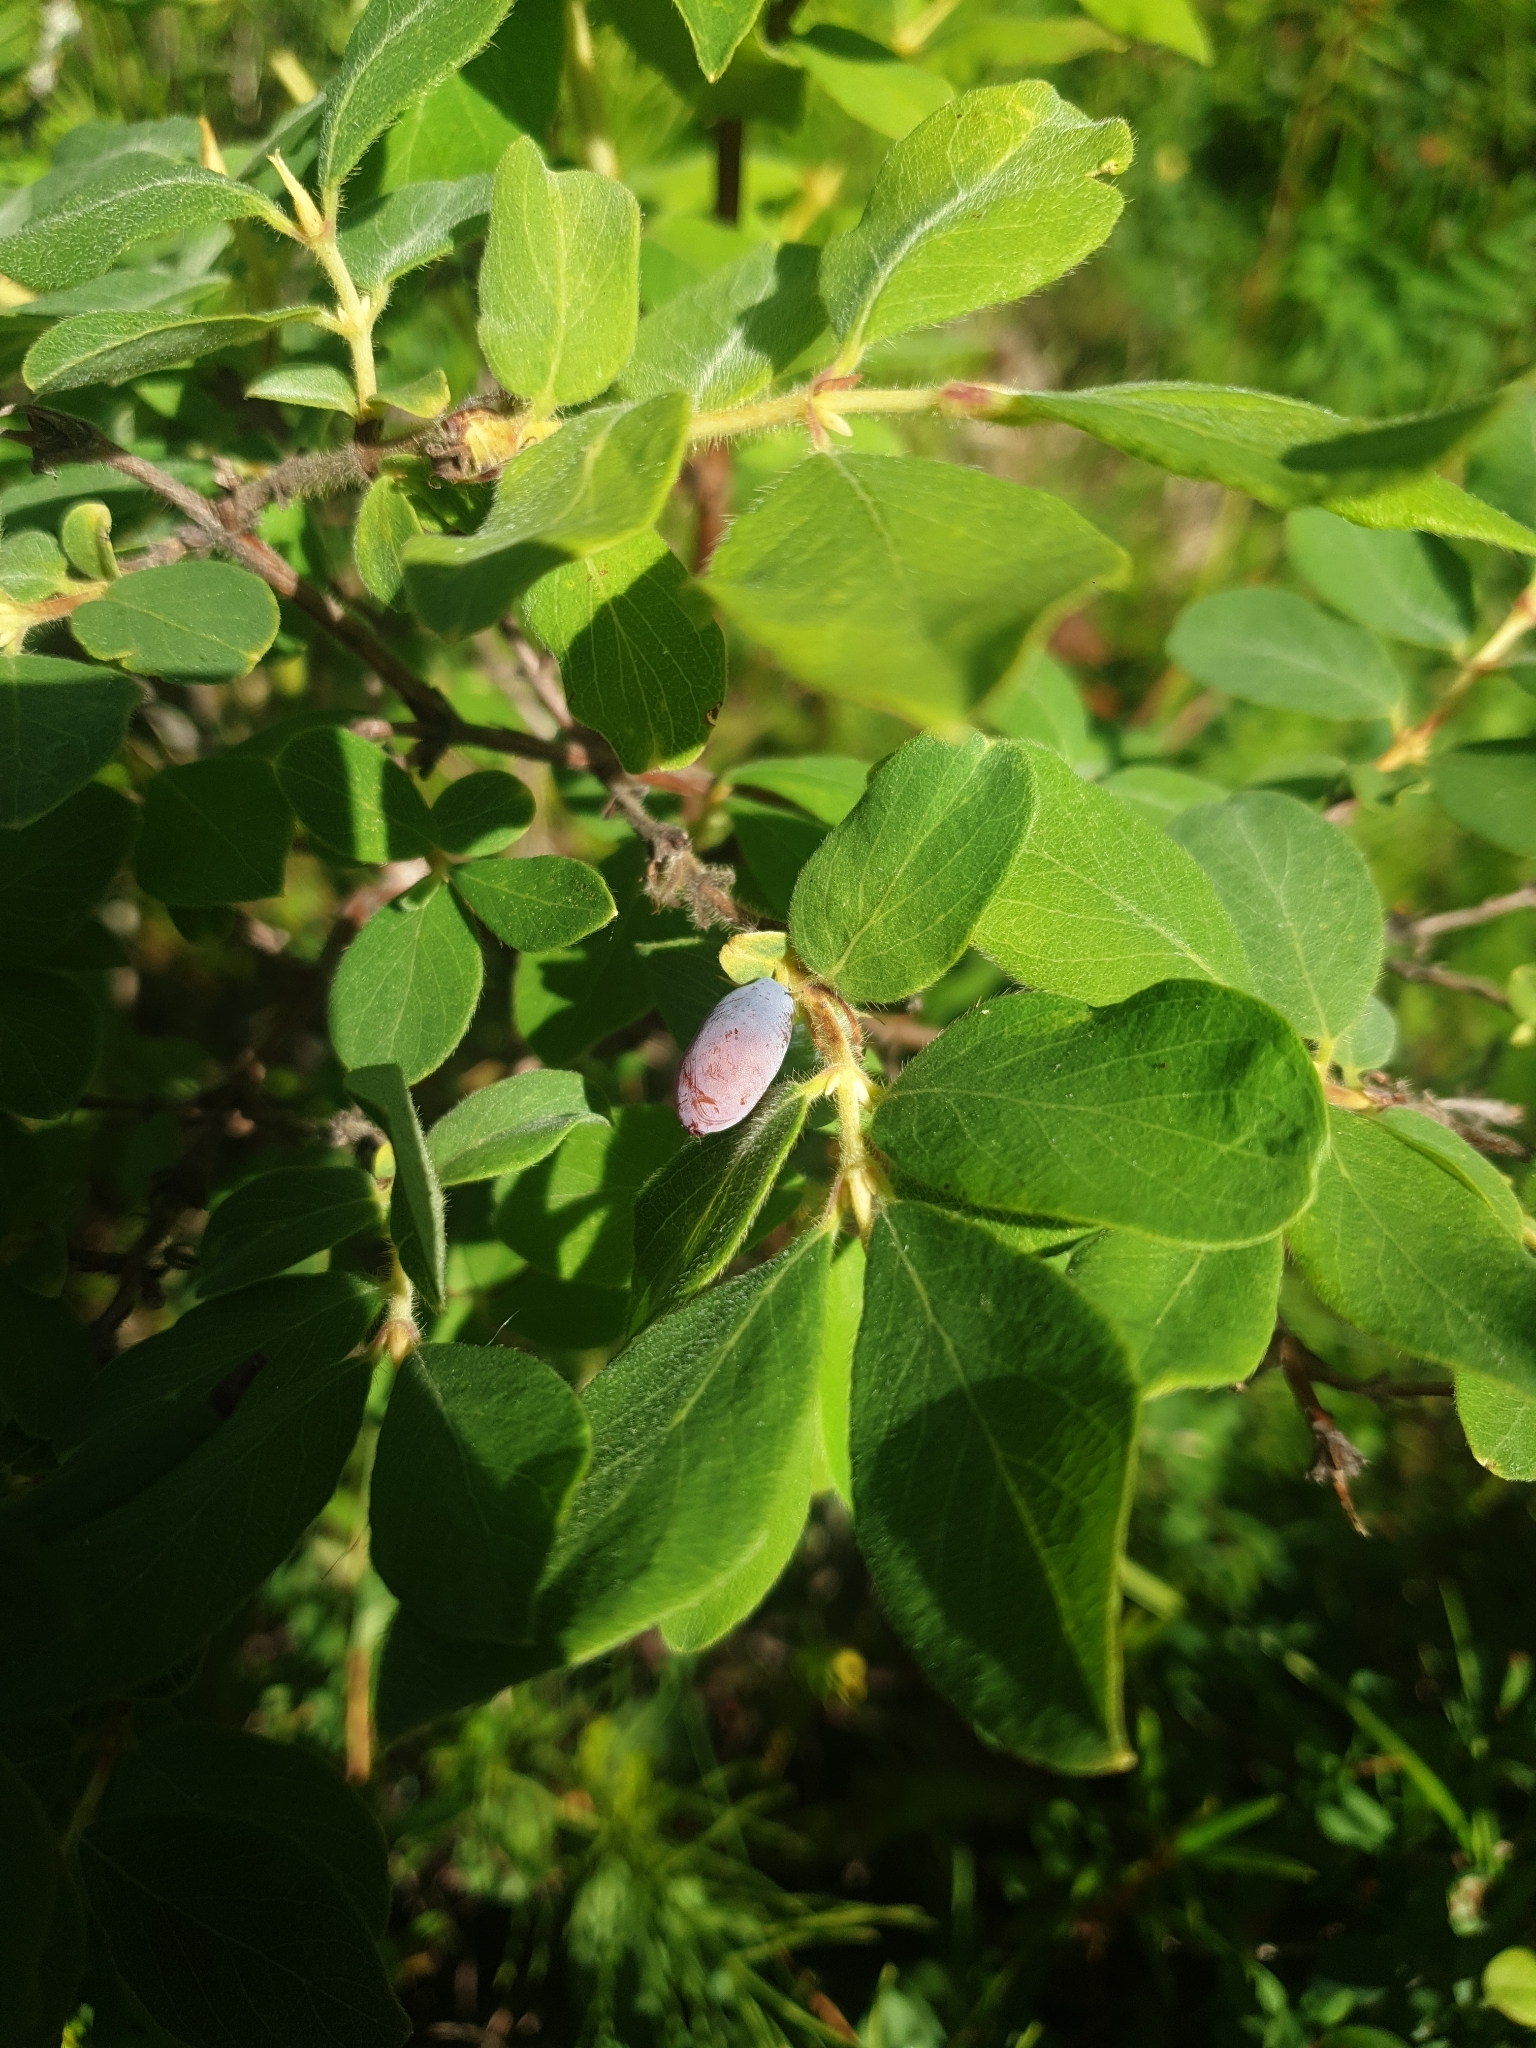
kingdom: Plantae
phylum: Tracheophyta
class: Magnoliopsida
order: Dipsacales
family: Caprifoliaceae
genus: Lonicera
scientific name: Lonicera caerulea
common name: Blue honeysuckle
